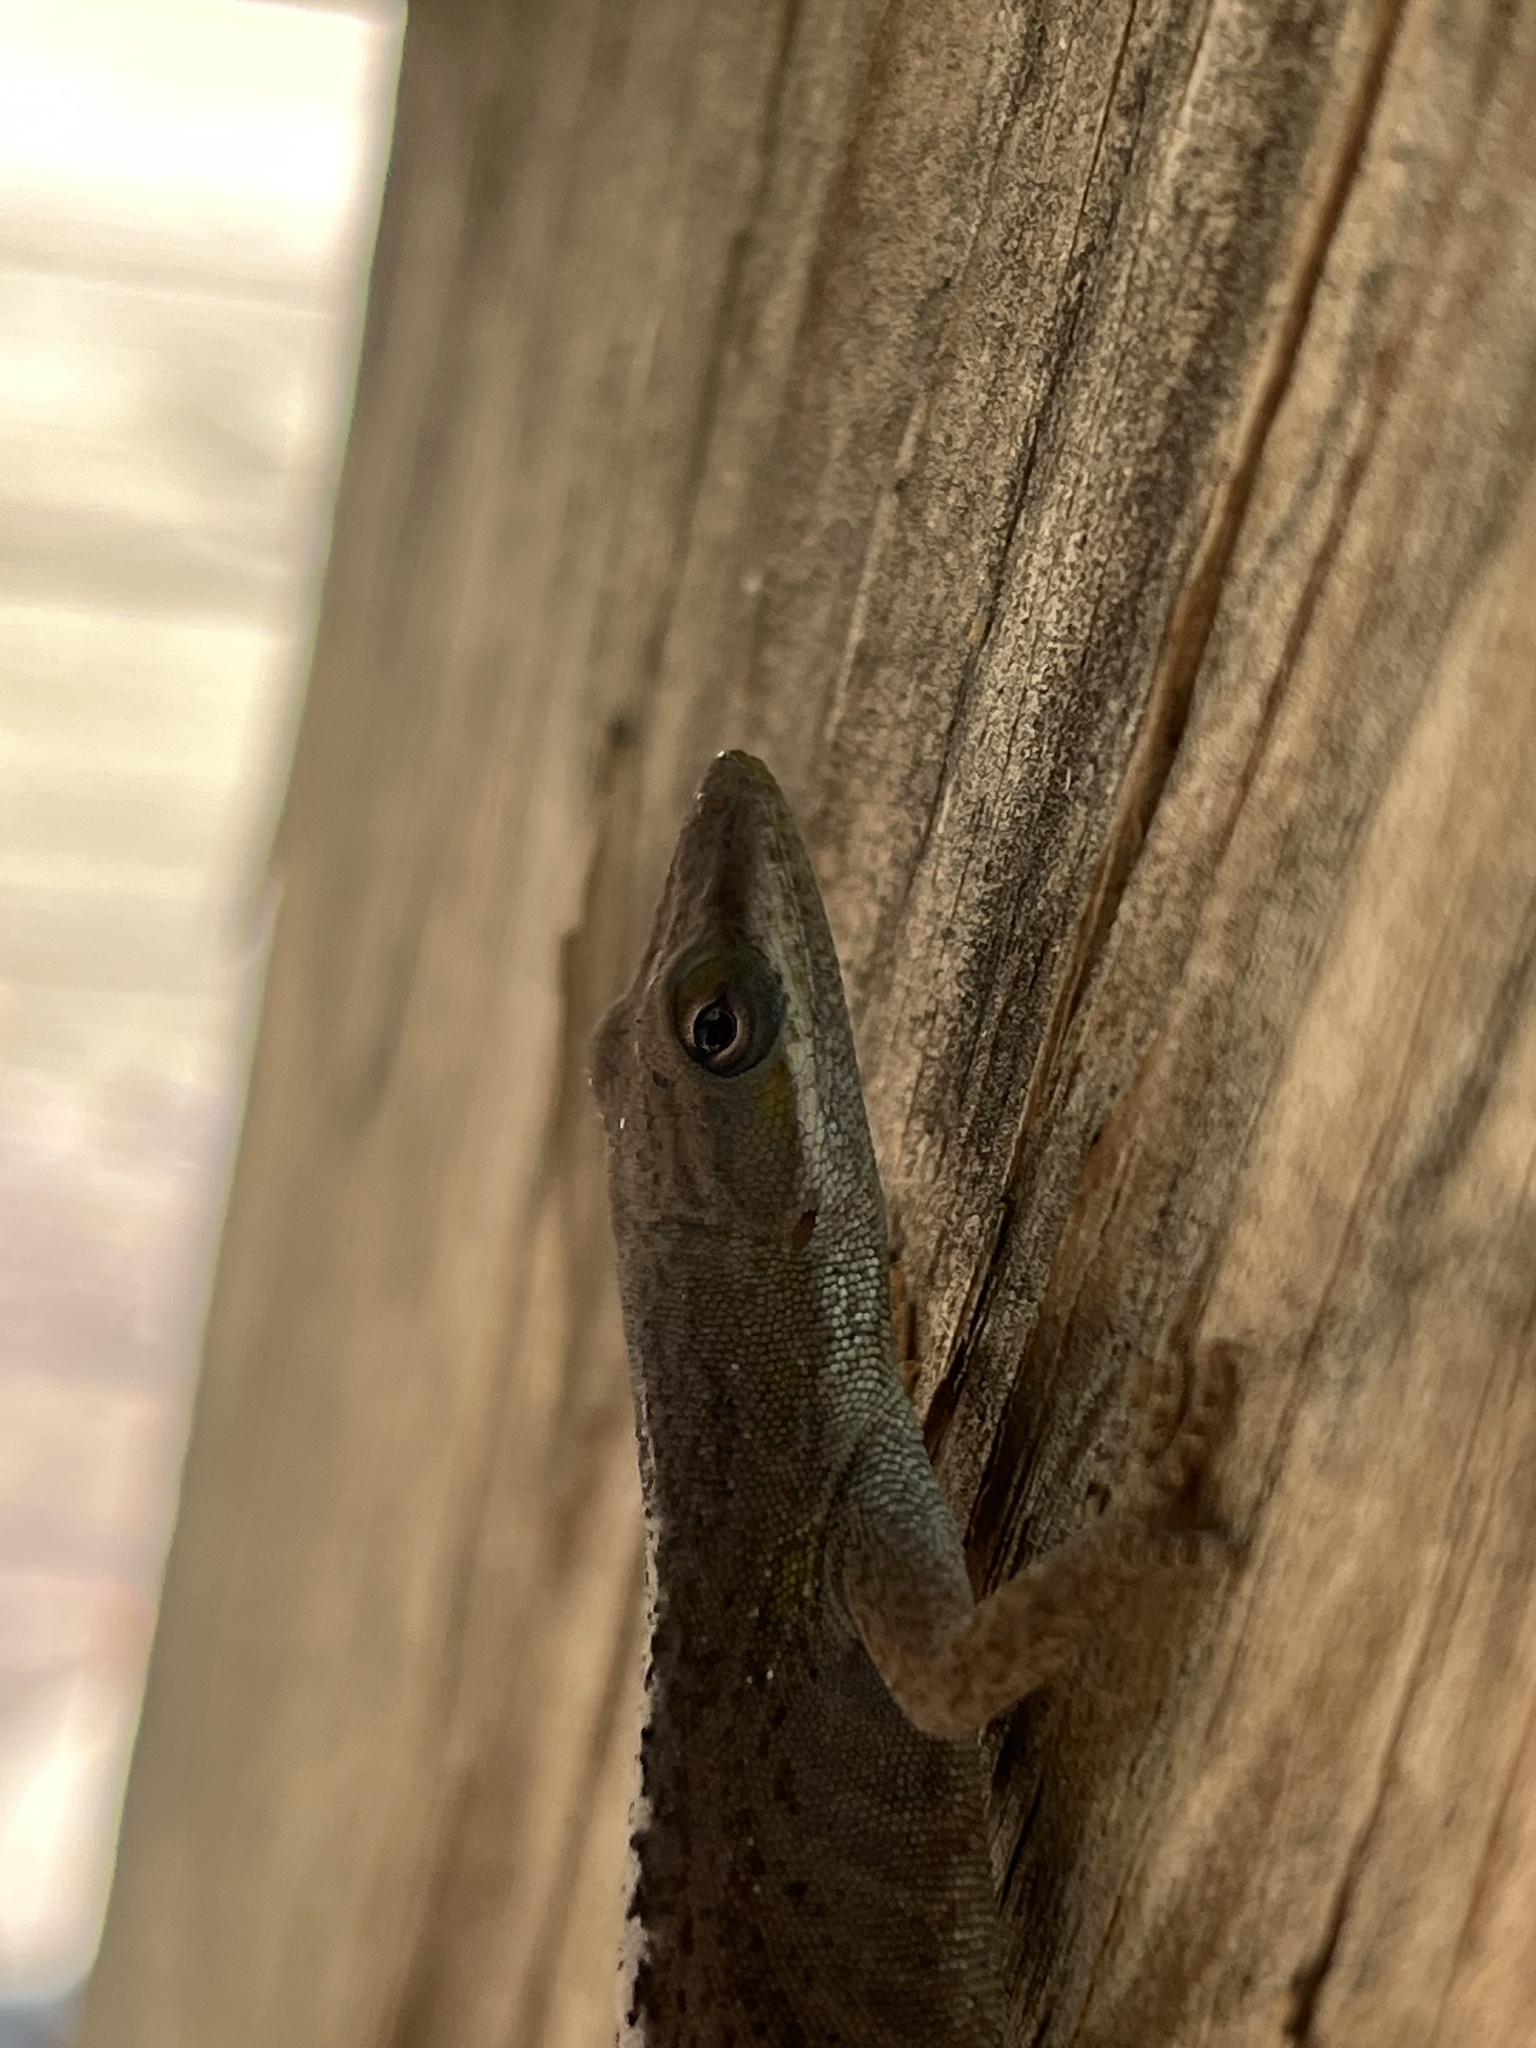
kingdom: Animalia
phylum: Chordata
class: Squamata
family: Dactyloidae
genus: Anolis
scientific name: Anolis carolinensis
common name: Green anole
